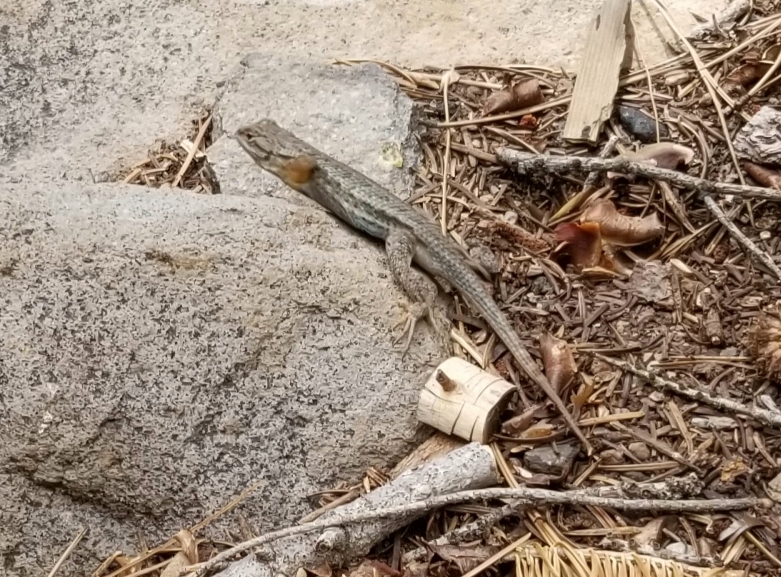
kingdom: Animalia
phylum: Chordata
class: Squamata
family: Phrynosomatidae
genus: Sceloporus
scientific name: Sceloporus occidentalis
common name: Western fence lizard
